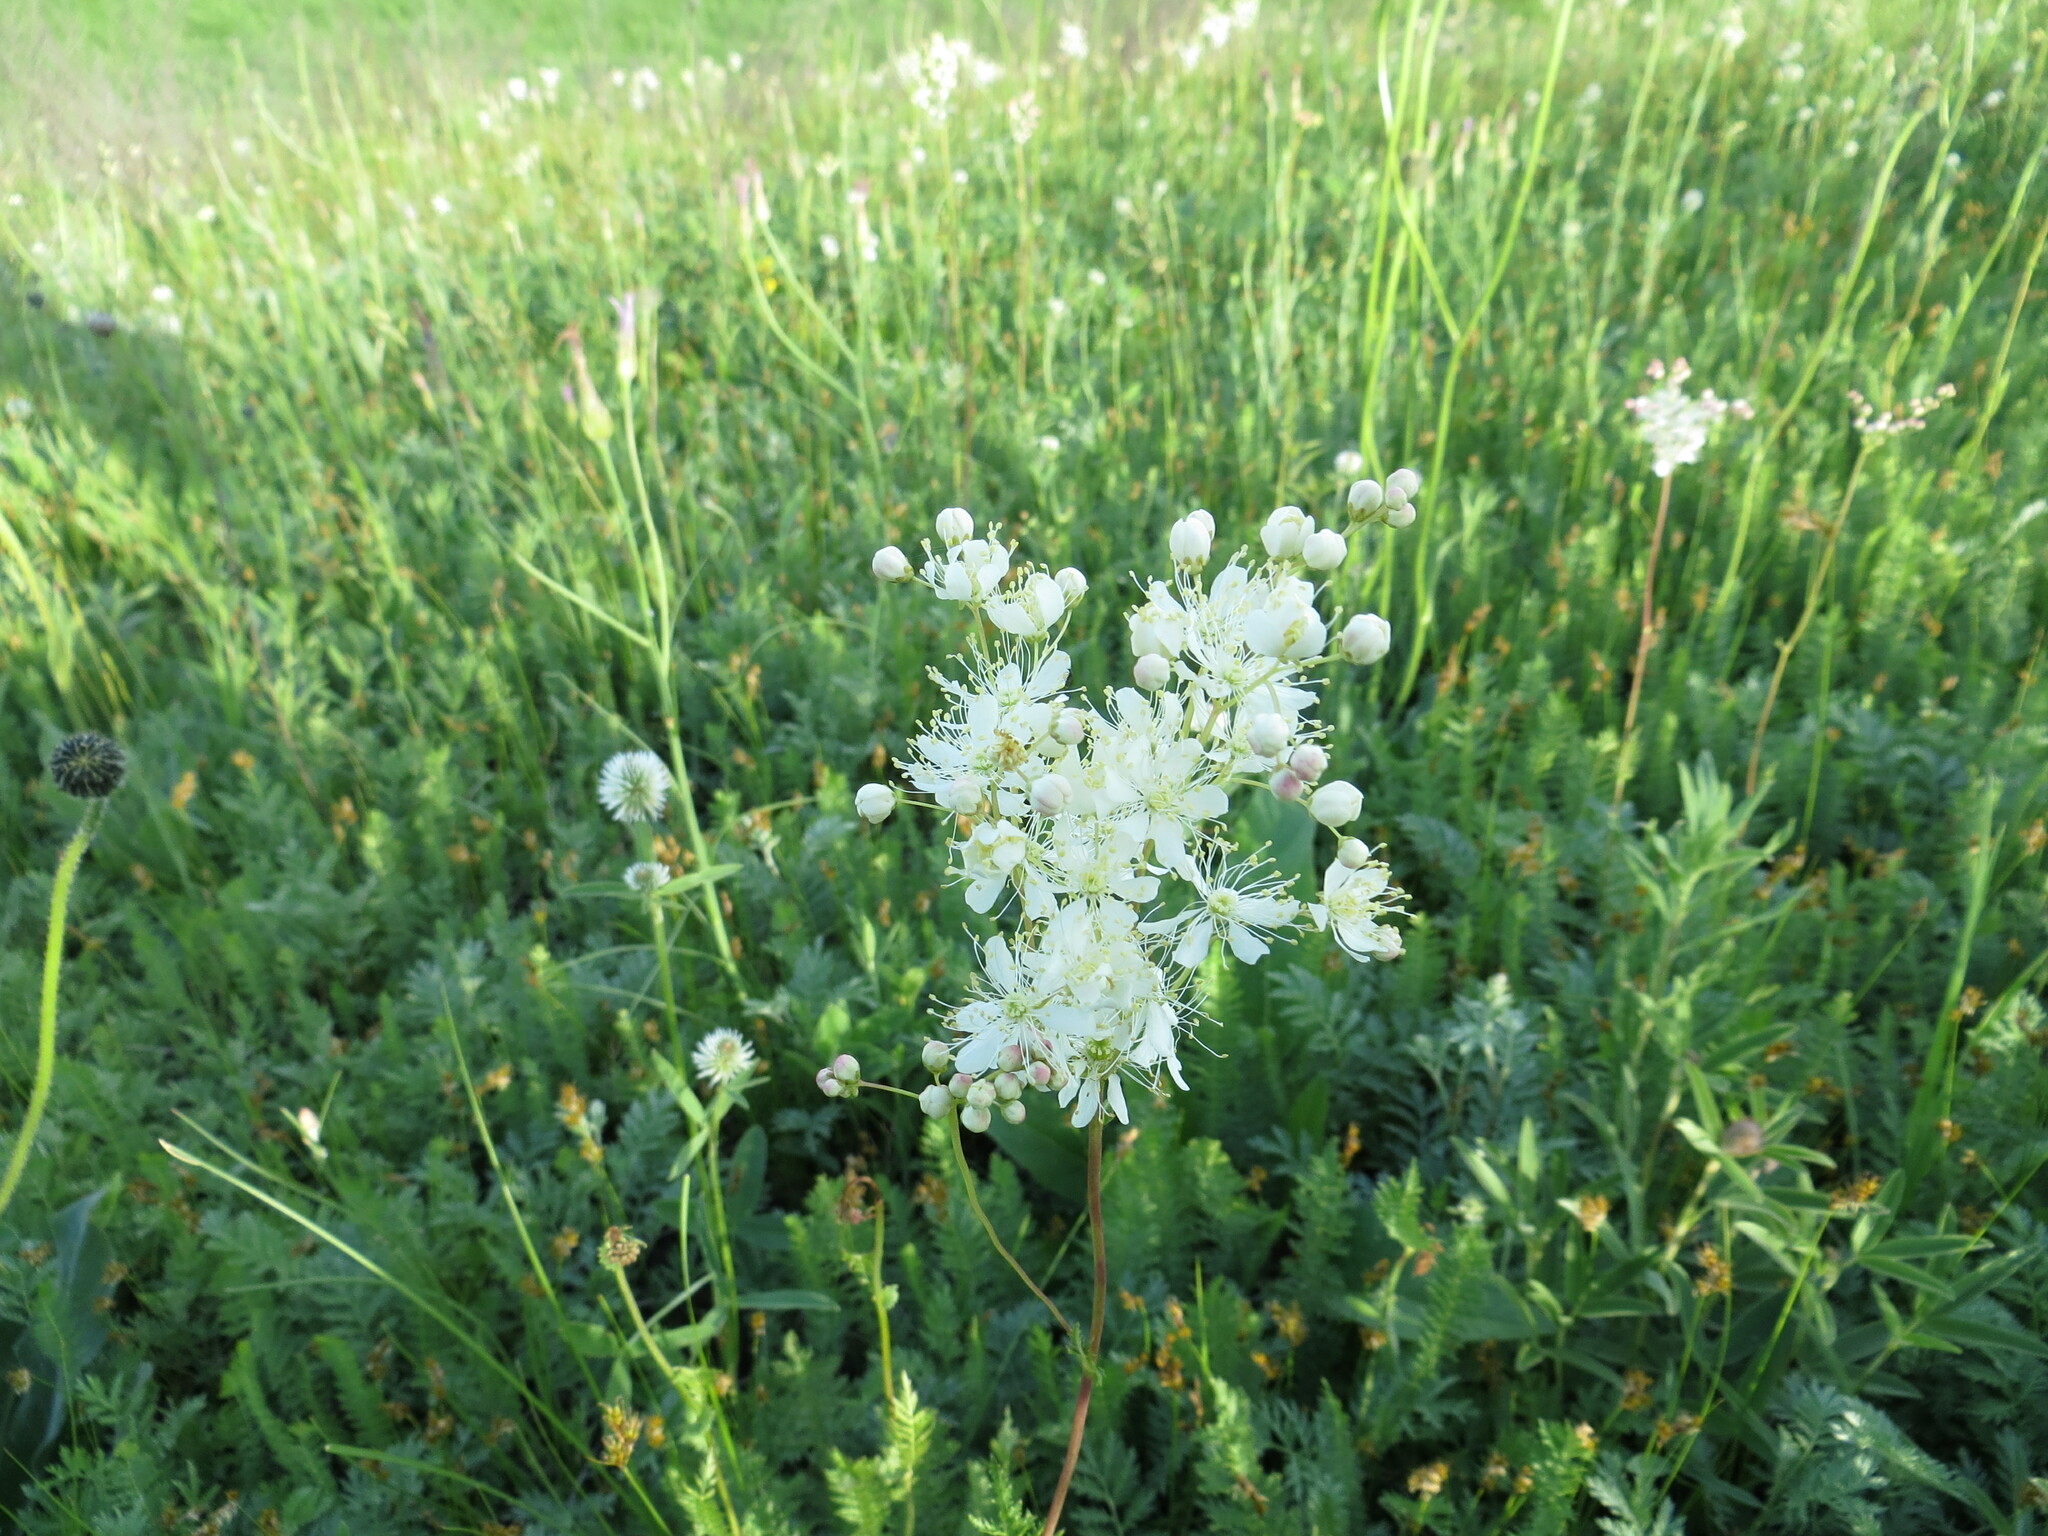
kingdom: Plantae
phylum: Tracheophyta
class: Magnoliopsida
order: Rosales
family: Rosaceae
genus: Filipendula
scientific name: Filipendula vulgaris
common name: Dropwort
